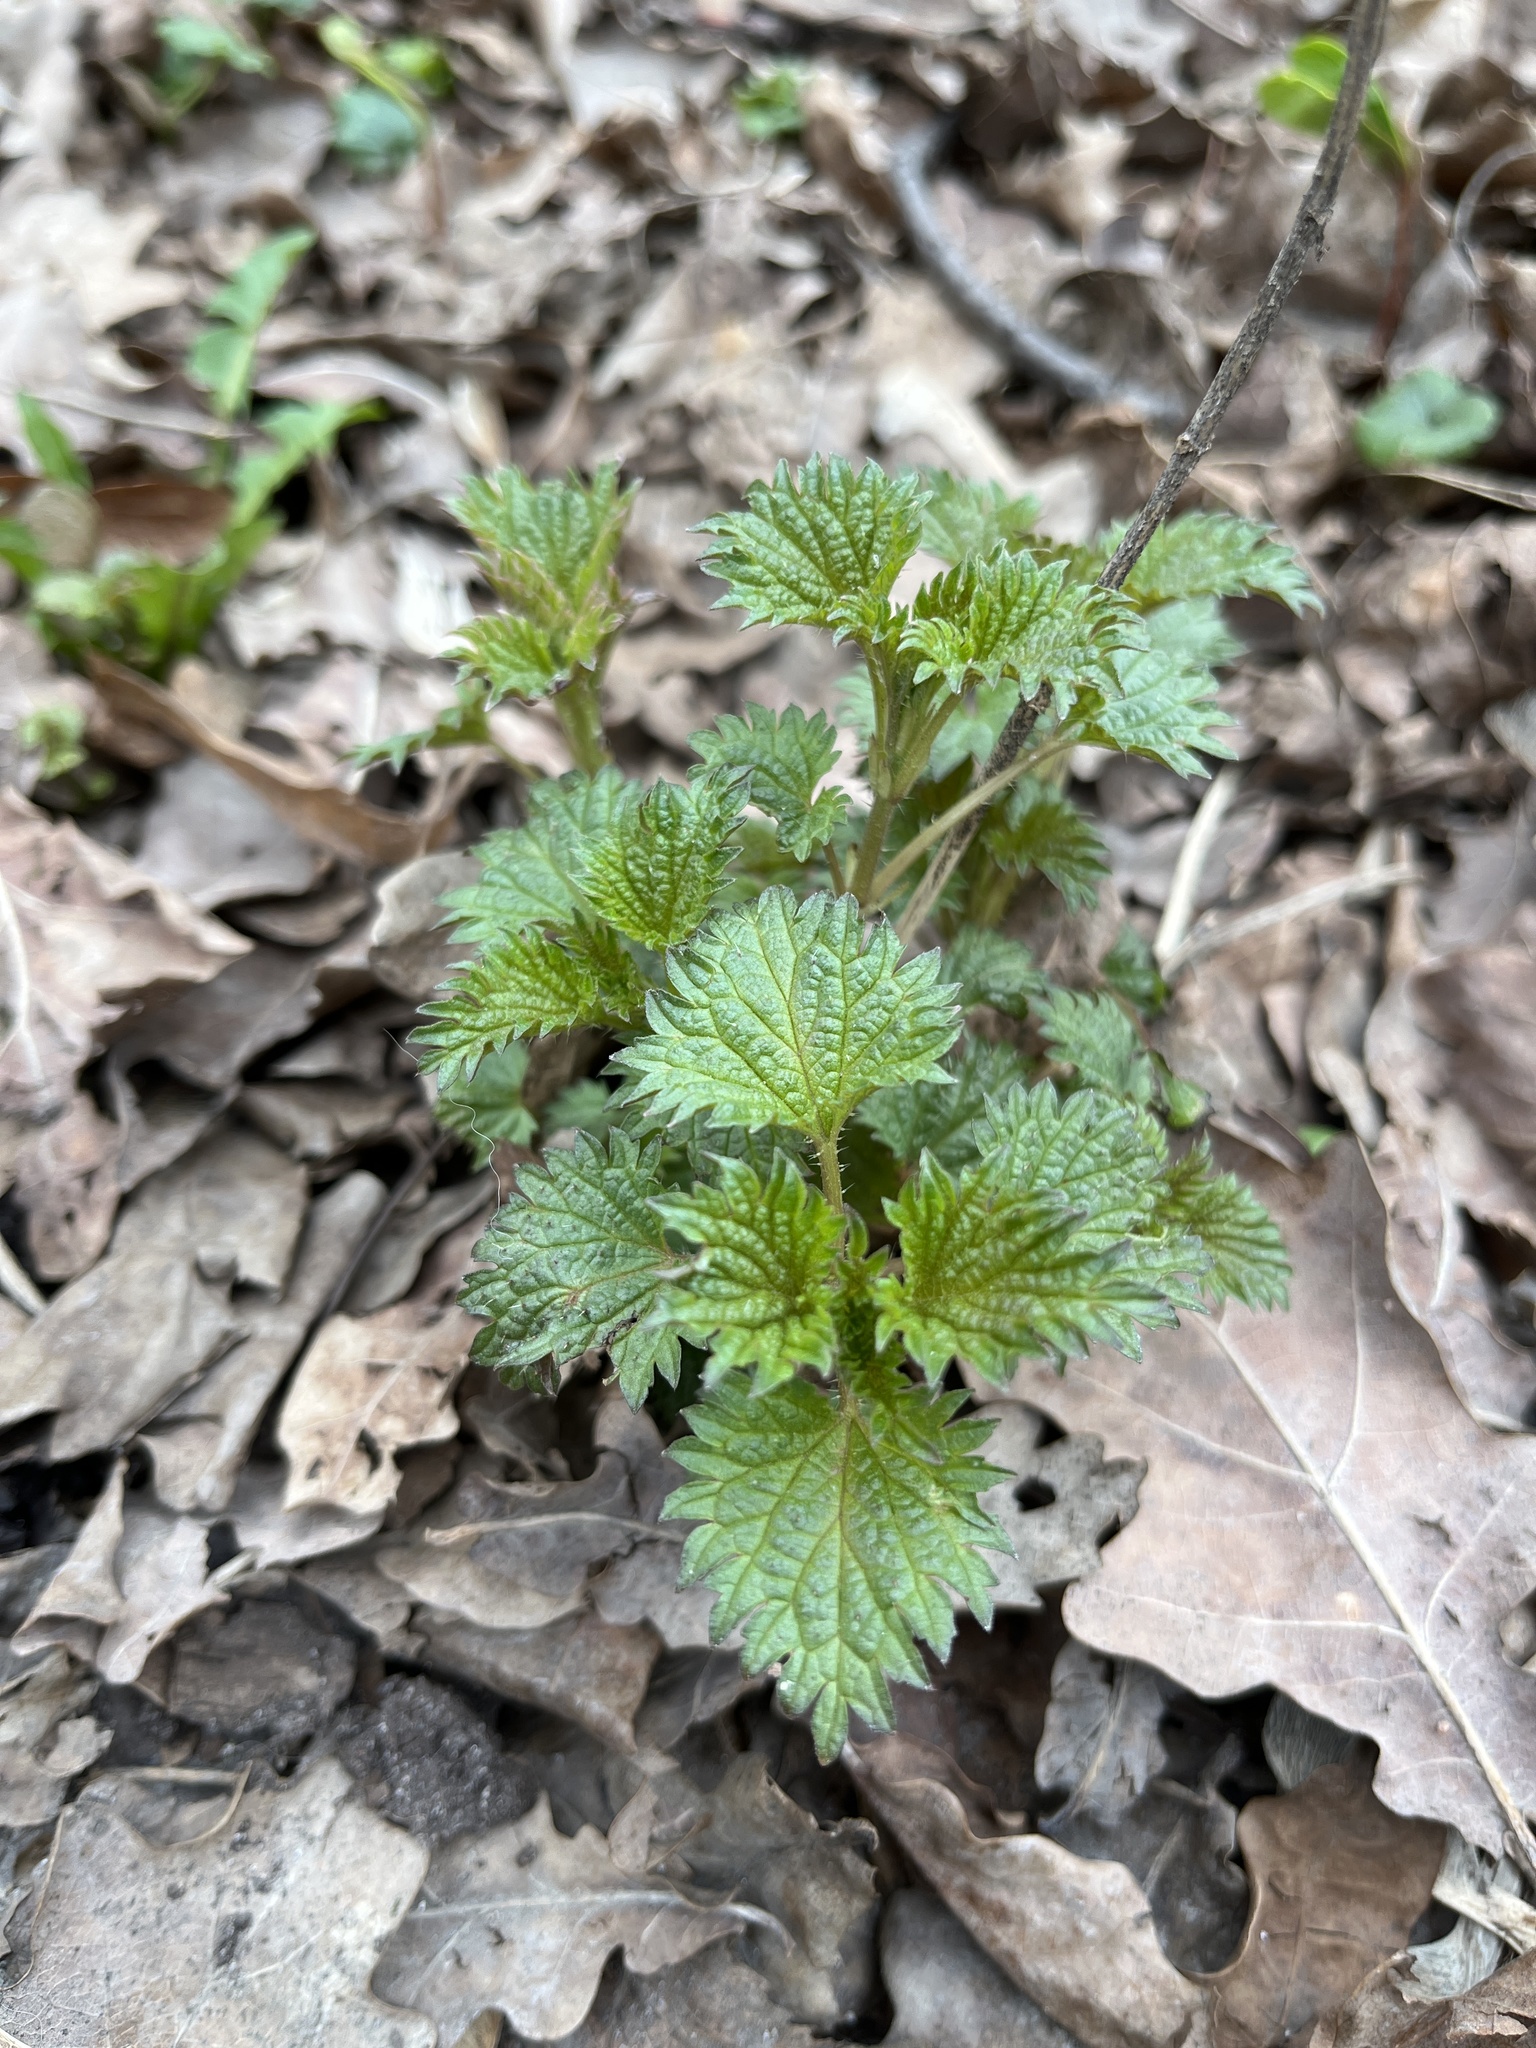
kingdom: Plantae
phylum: Tracheophyta
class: Magnoliopsida
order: Rosales
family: Urticaceae
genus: Urtica
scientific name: Urtica dioica
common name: Common nettle
